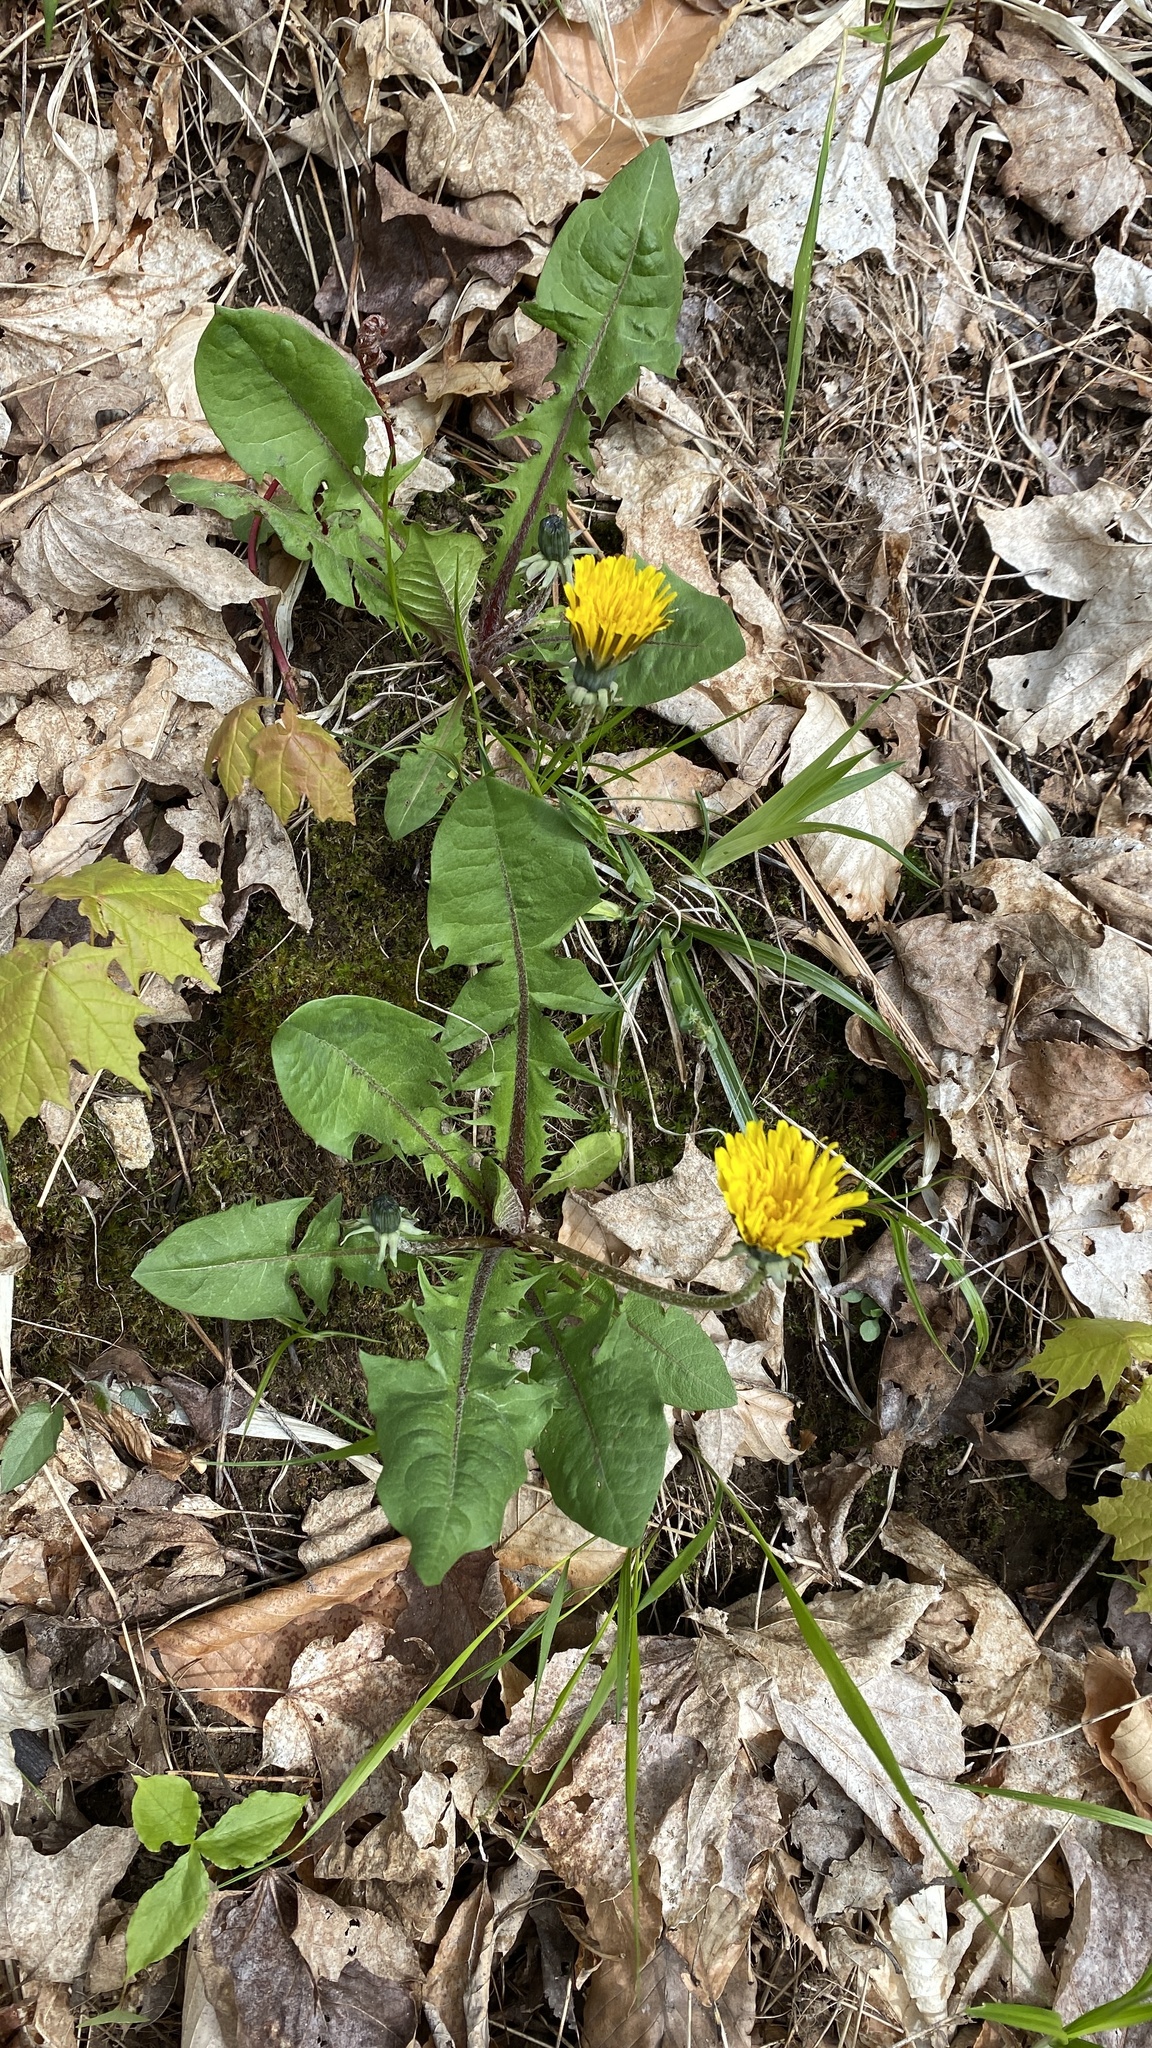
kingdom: Plantae
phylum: Tracheophyta
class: Magnoliopsida
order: Asterales
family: Asteraceae
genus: Taraxacum
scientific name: Taraxacum officinale
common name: Common dandelion
